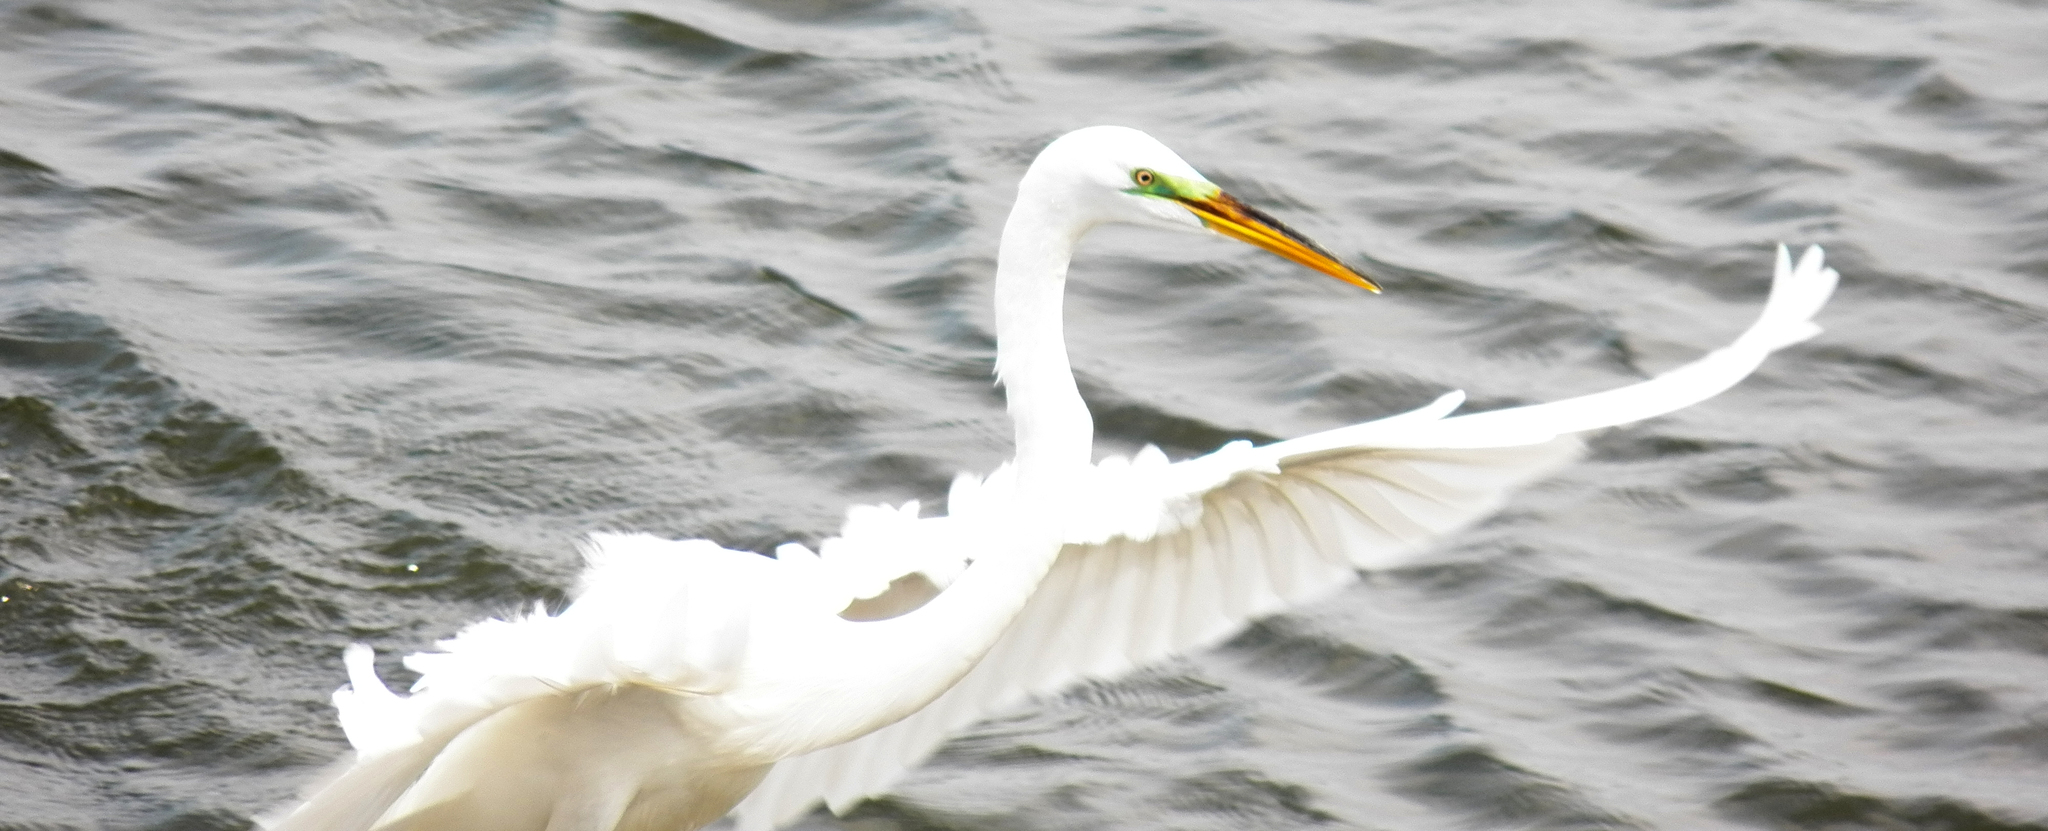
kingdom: Animalia
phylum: Chordata
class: Aves
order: Pelecaniformes
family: Ardeidae
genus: Ardea
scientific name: Ardea alba
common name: Great egret
